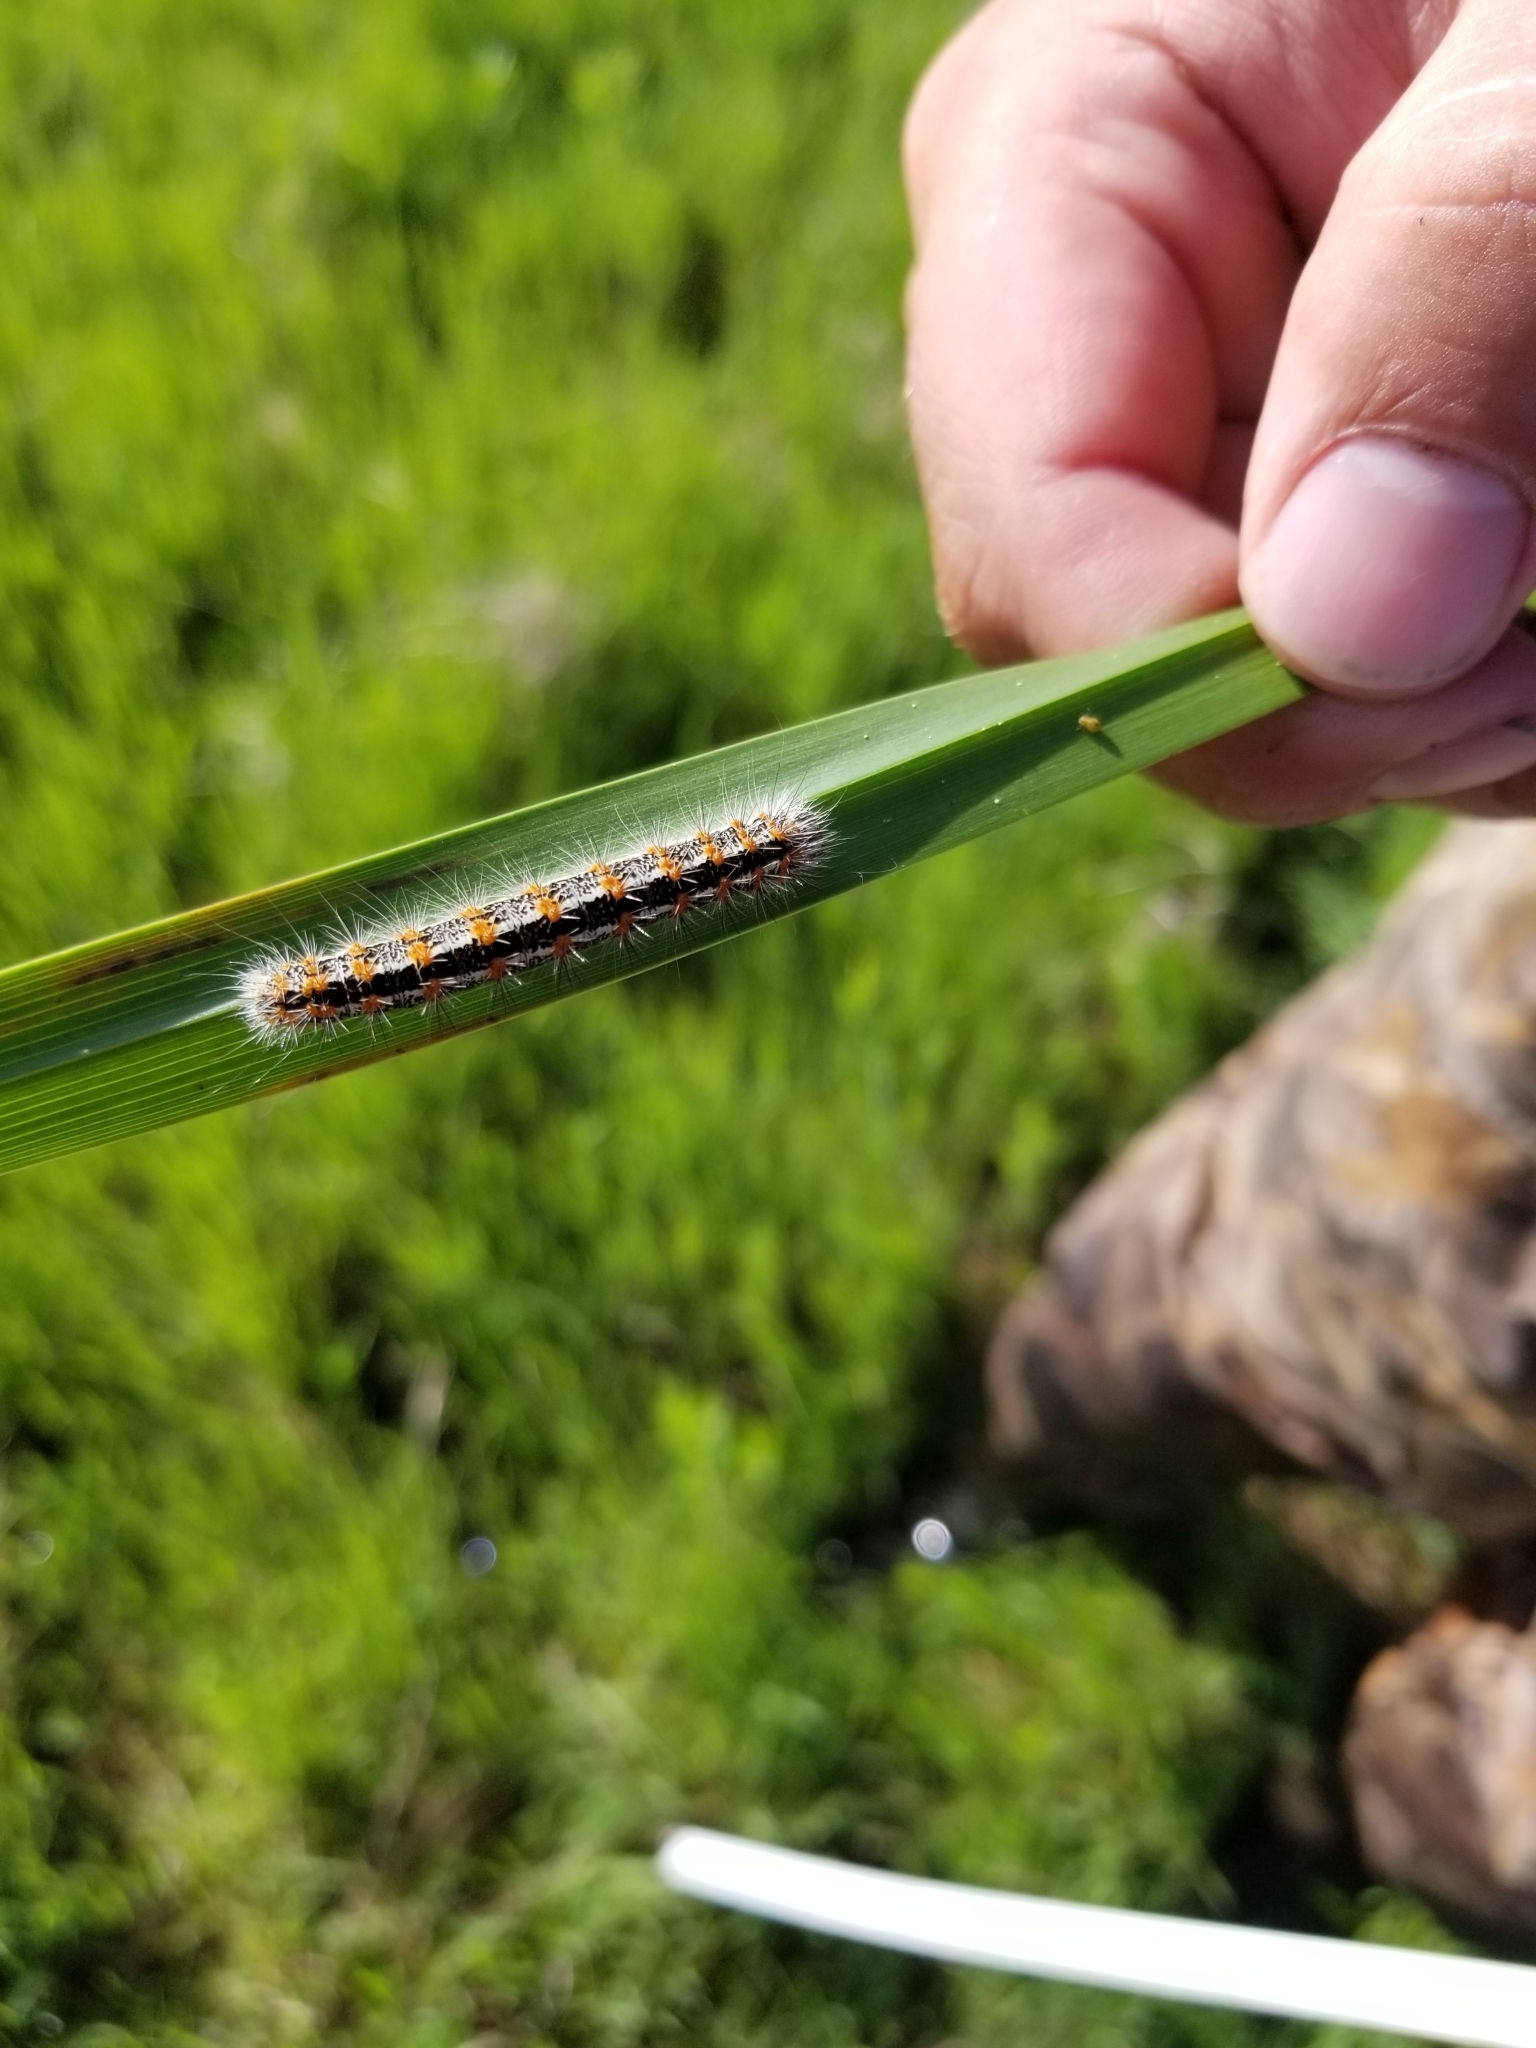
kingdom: Animalia
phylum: Arthropoda
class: Insecta
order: Lepidoptera
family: Noctuidae
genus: Acronicta
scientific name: Acronicta insularis
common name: Henry's marsh moth
